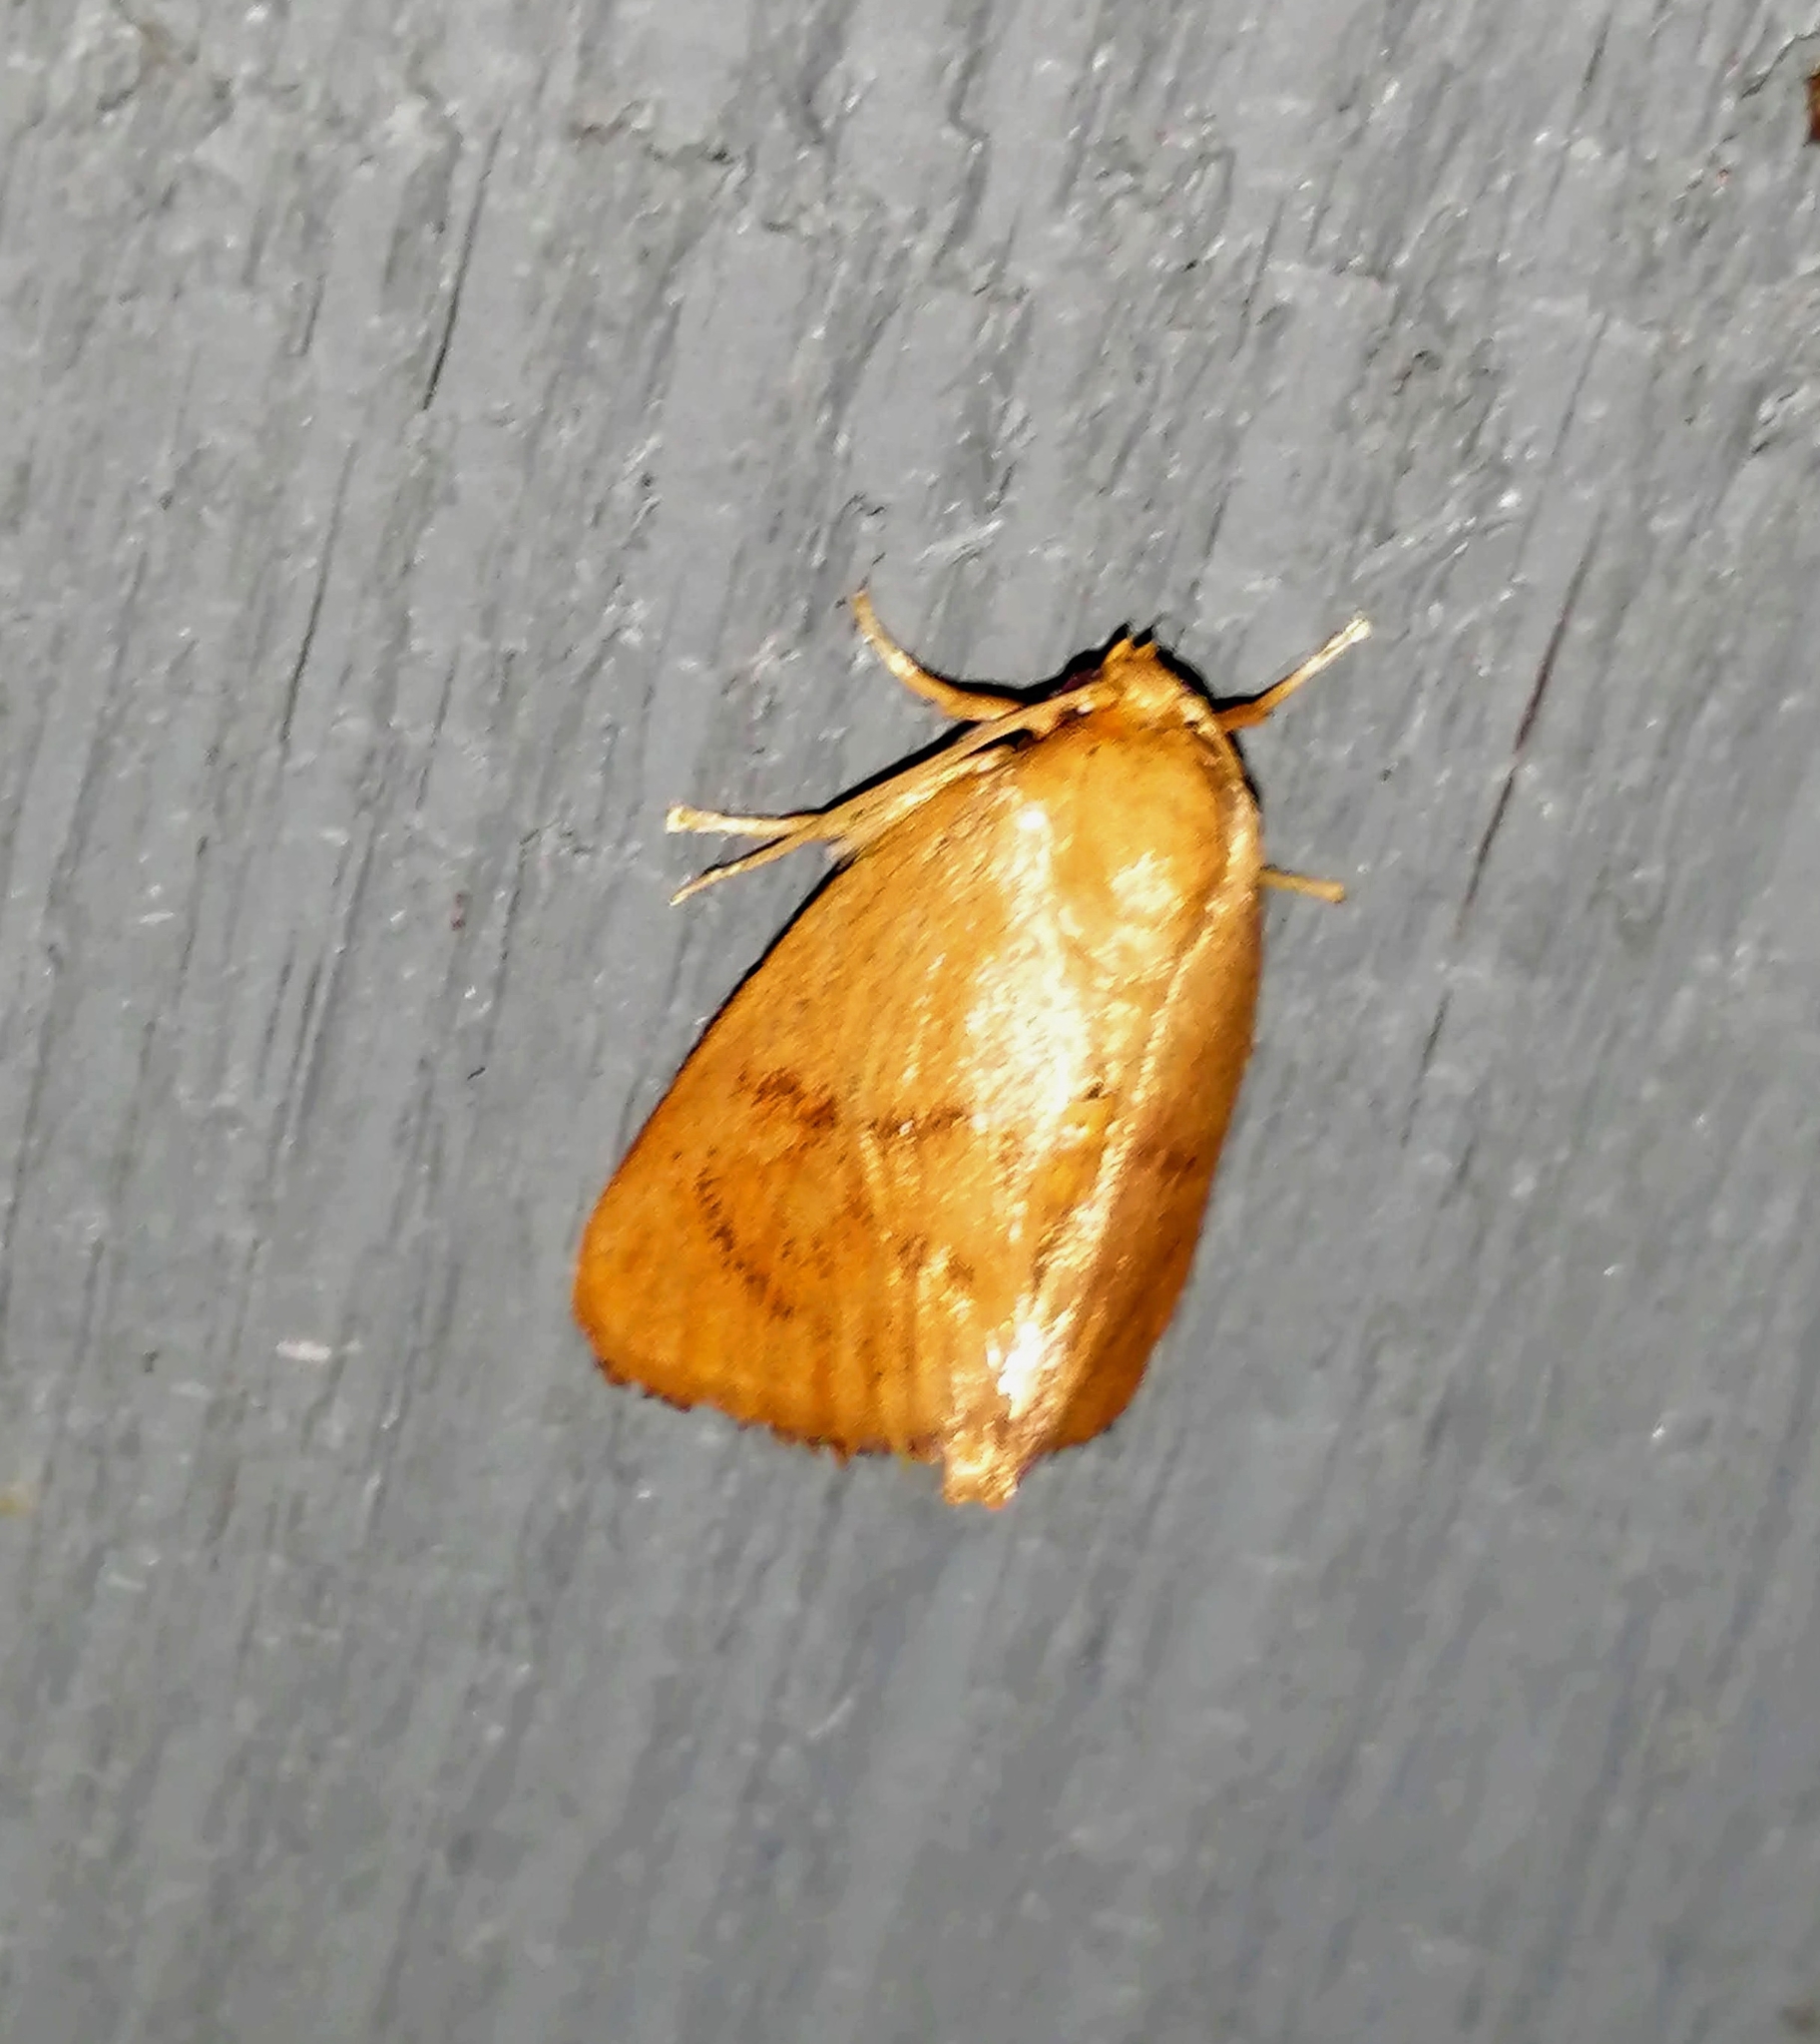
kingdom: Animalia
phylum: Arthropoda
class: Insecta
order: Lepidoptera
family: Limacodidae
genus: Tortricidia
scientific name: Tortricidia flexuosa
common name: Abbreviated button slug moth
